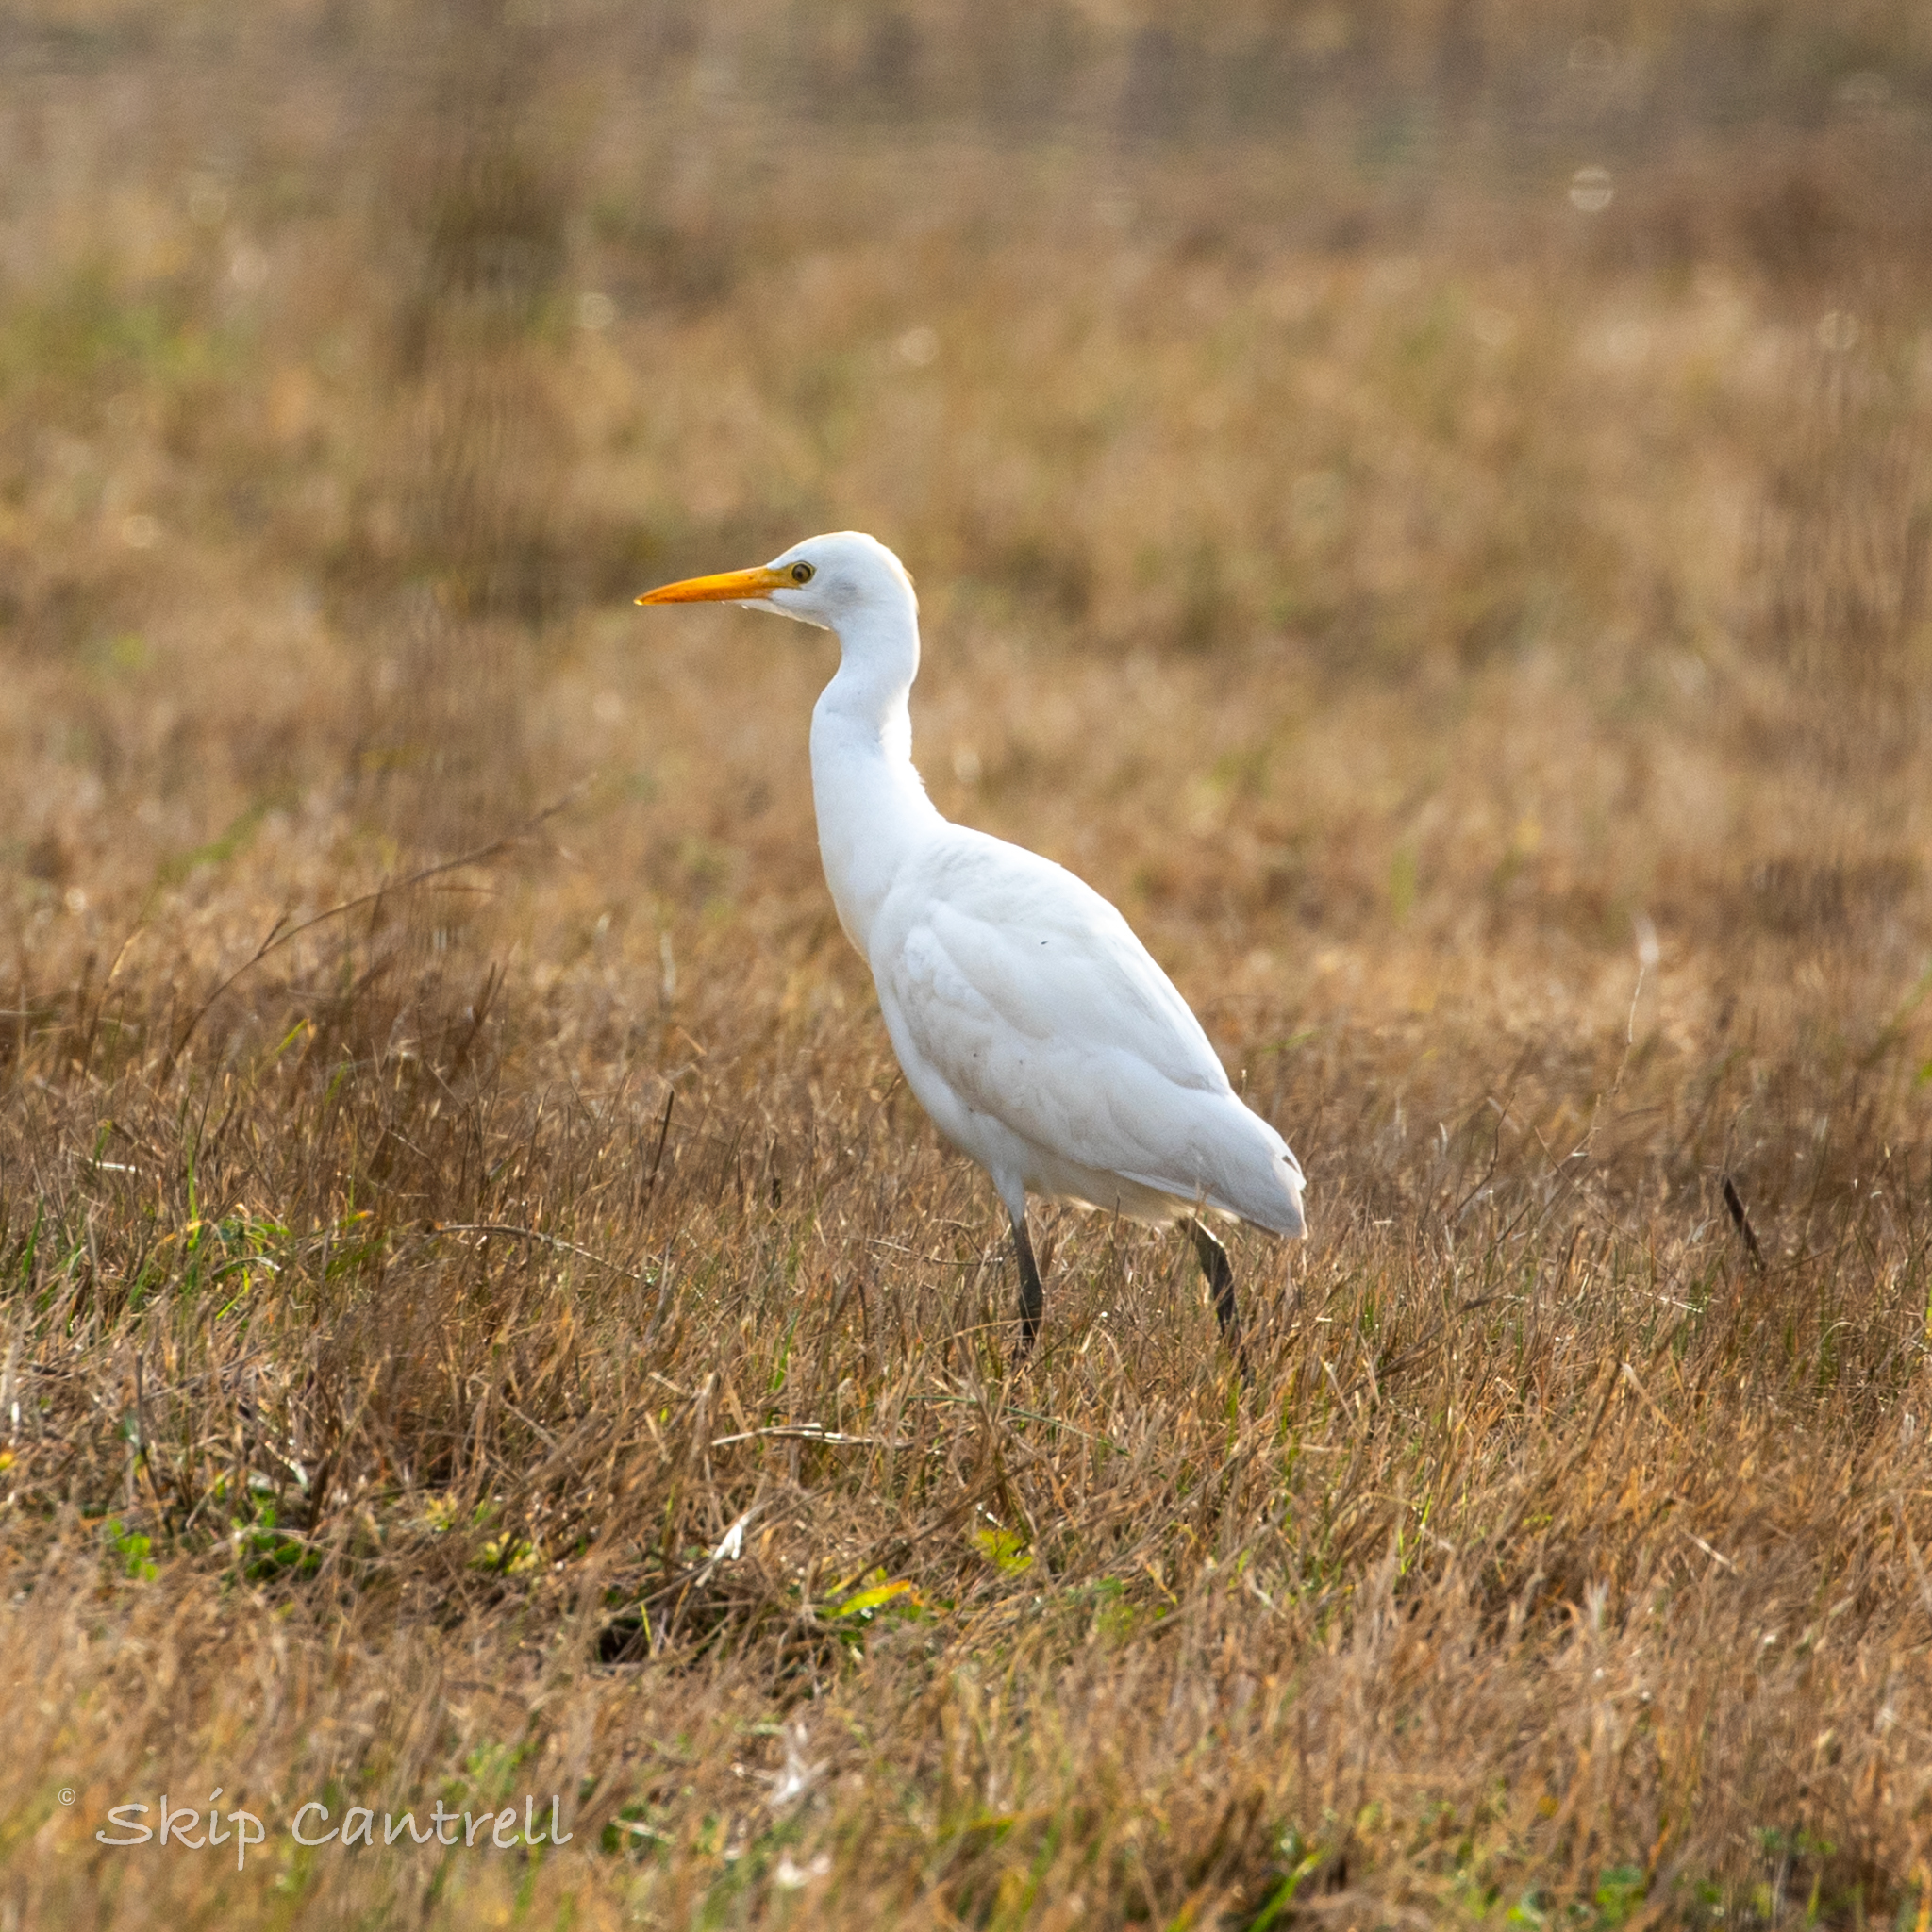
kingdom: Animalia
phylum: Chordata
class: Aves
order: Pelecaniformes
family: Ardeidae
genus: Bubulcus
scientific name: Bubulcus ibis
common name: Cattle egret
